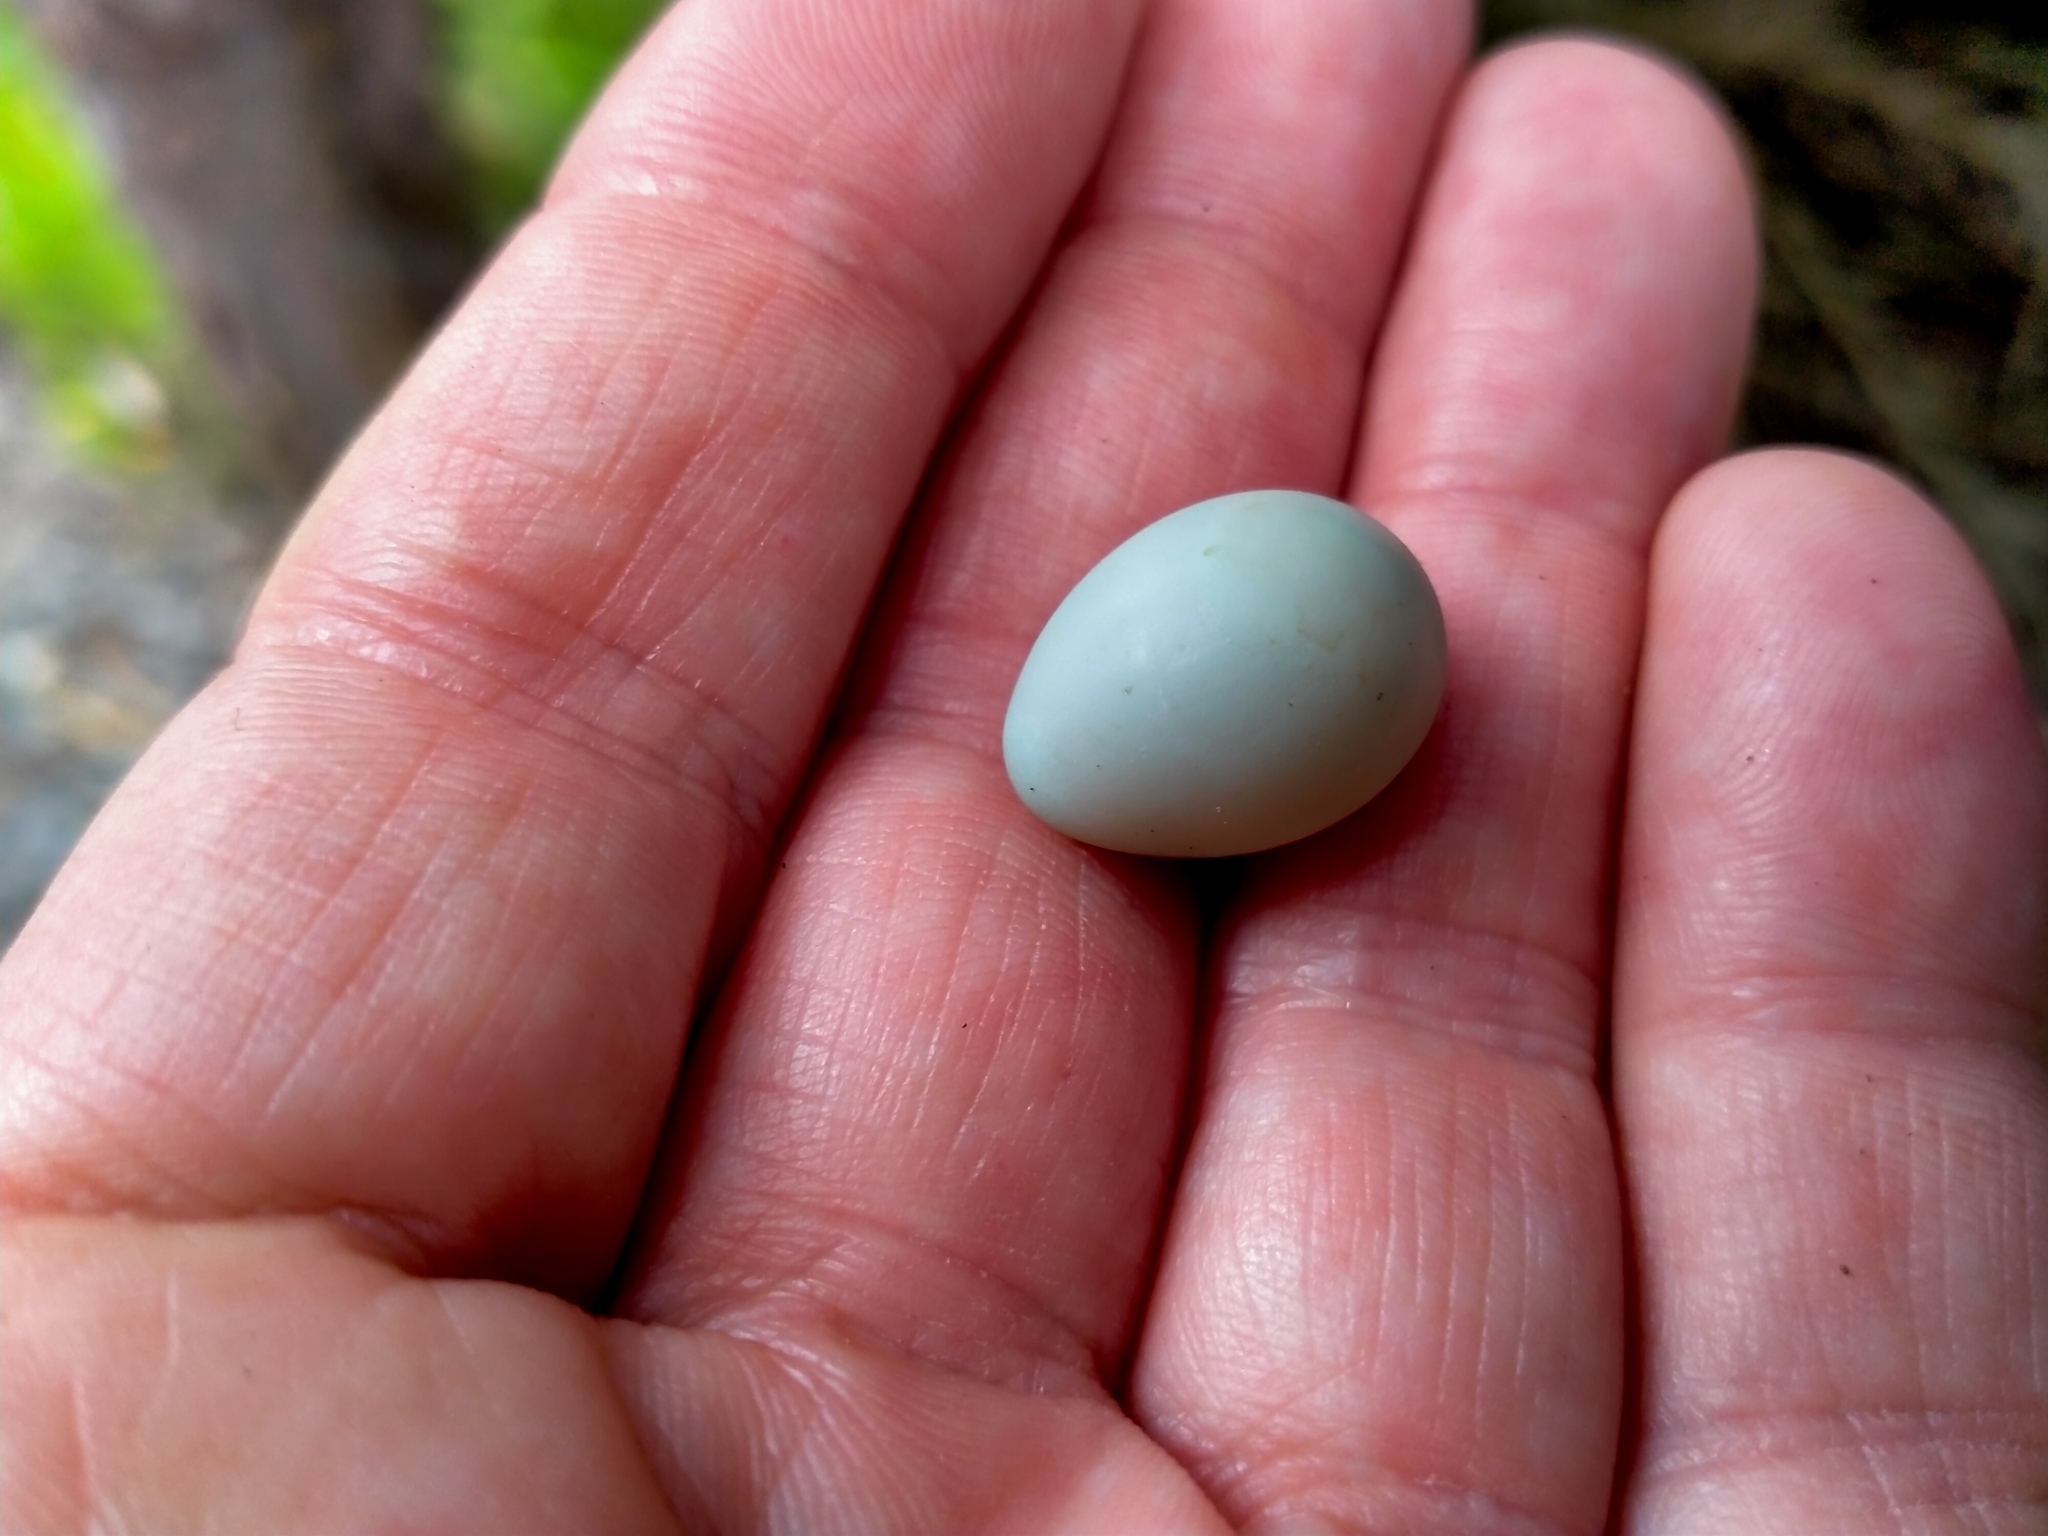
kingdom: Animalia
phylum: Chordata
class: Aves
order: Passeriformes
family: Zosteropidae
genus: Zosterops
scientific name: Zosterops lateralis
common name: Silvereye
